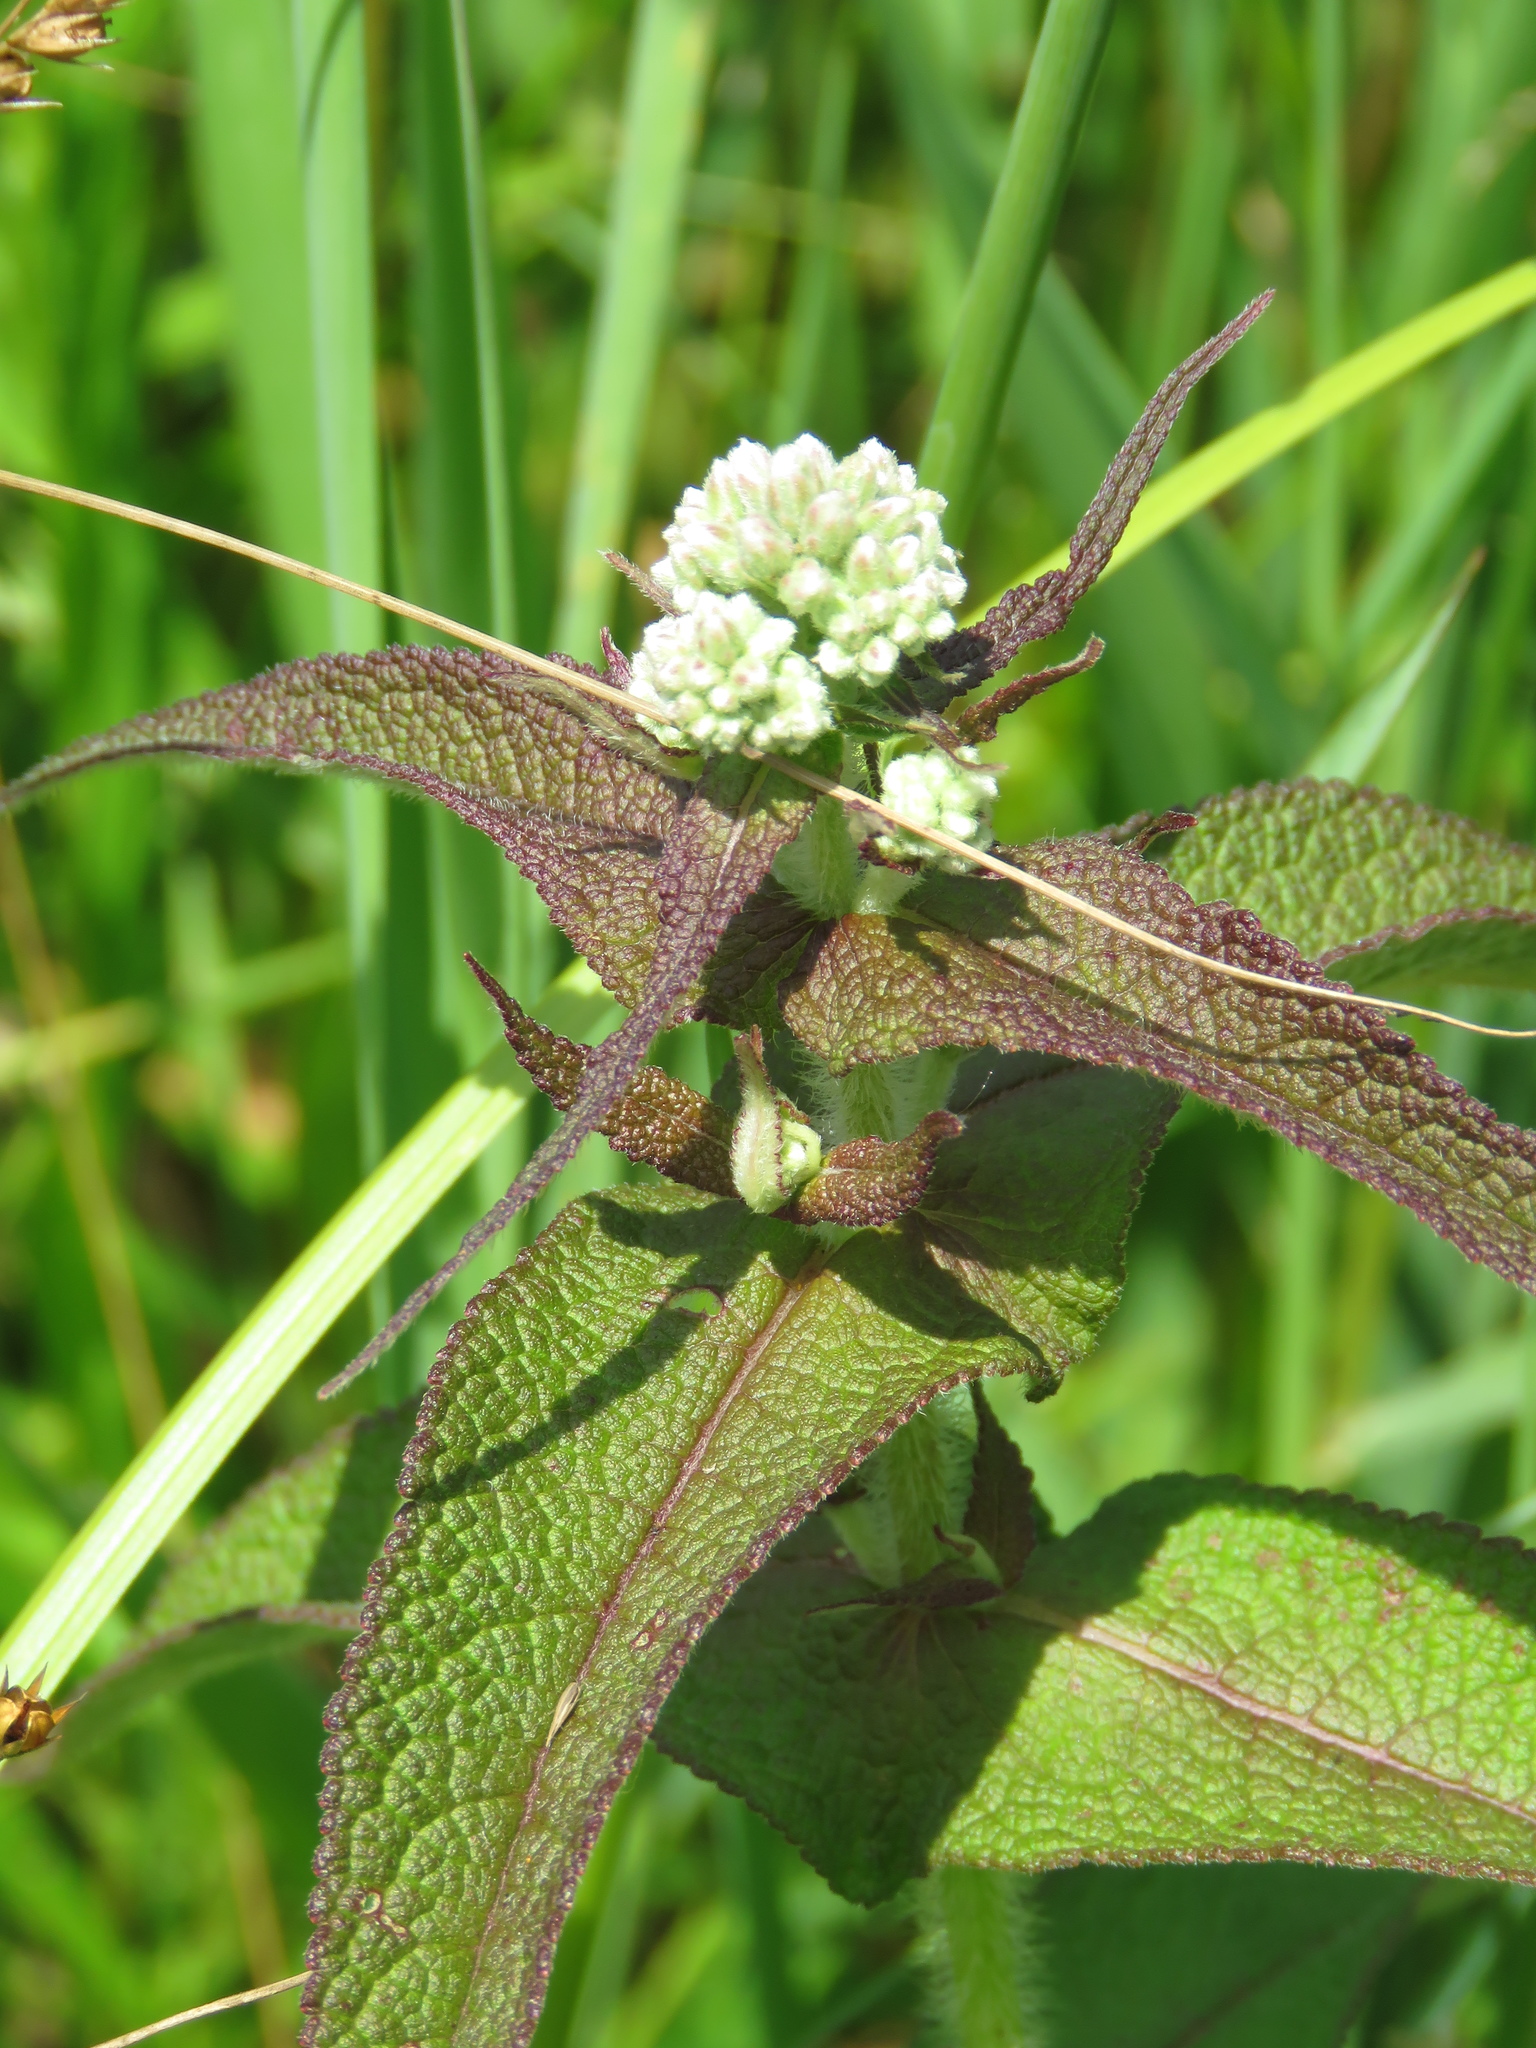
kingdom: Plantae
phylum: Tracheophyta
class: Magnoliopsida
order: Asterales
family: Asteraceae
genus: Eupatorium
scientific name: Eupatorium perfoliatum
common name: Boneset
